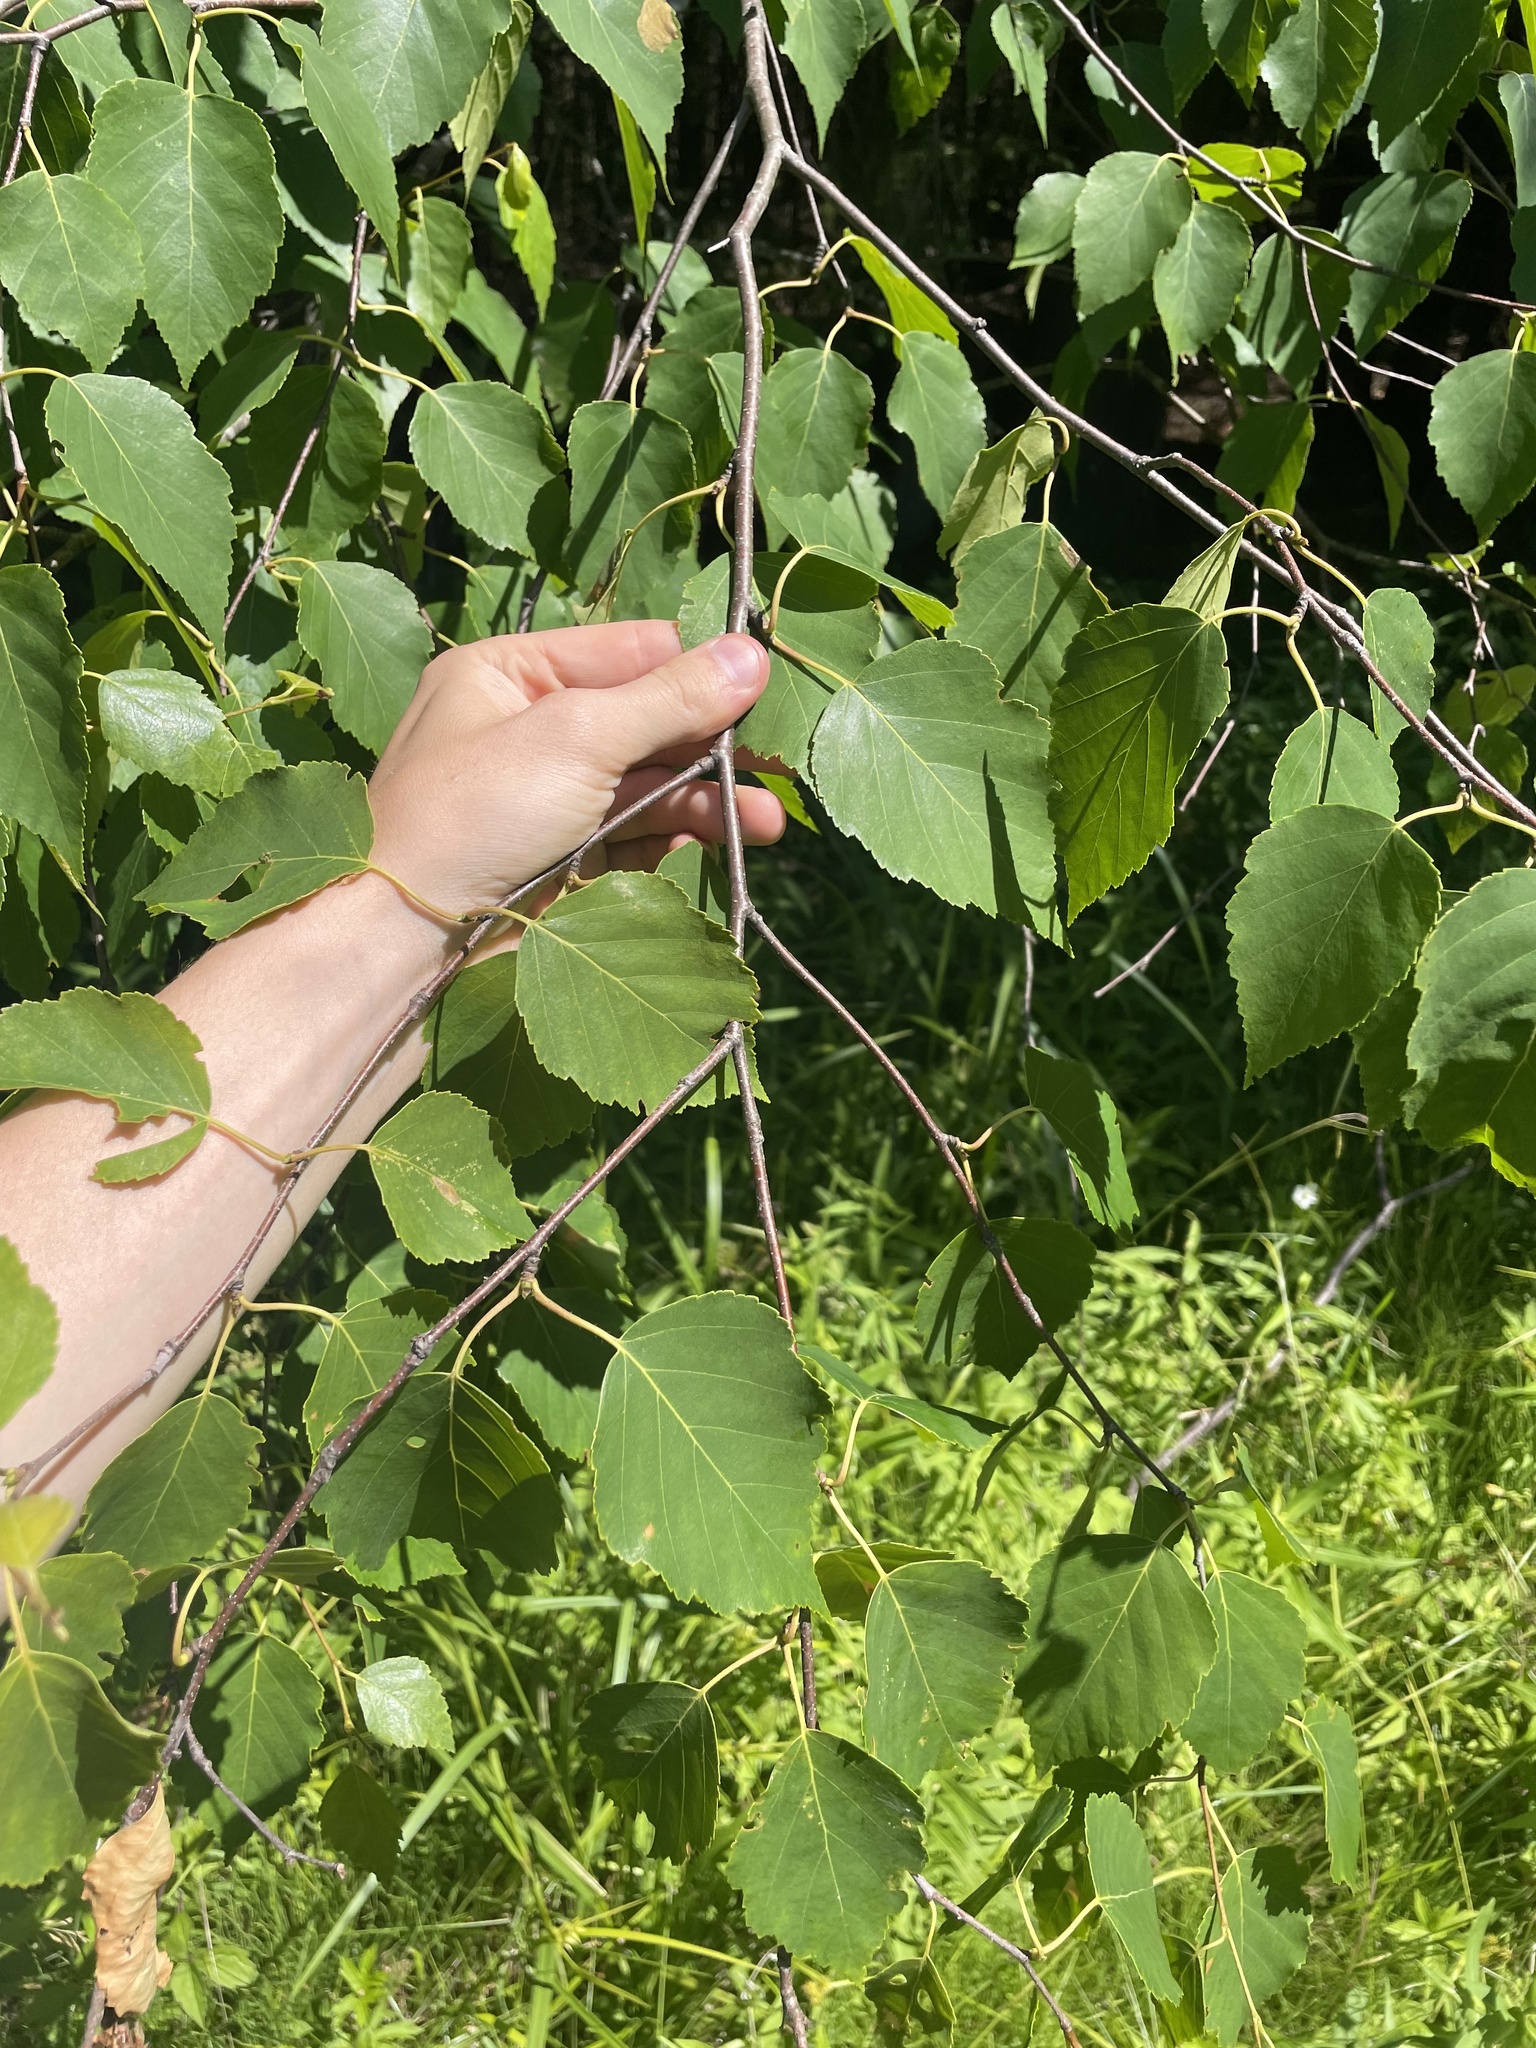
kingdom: Plantae
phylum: Tracheophyta
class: Magnoliopsida
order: Fagales
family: Betulaceae
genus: Betula
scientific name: Betula papyrifera
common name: Paper birch
